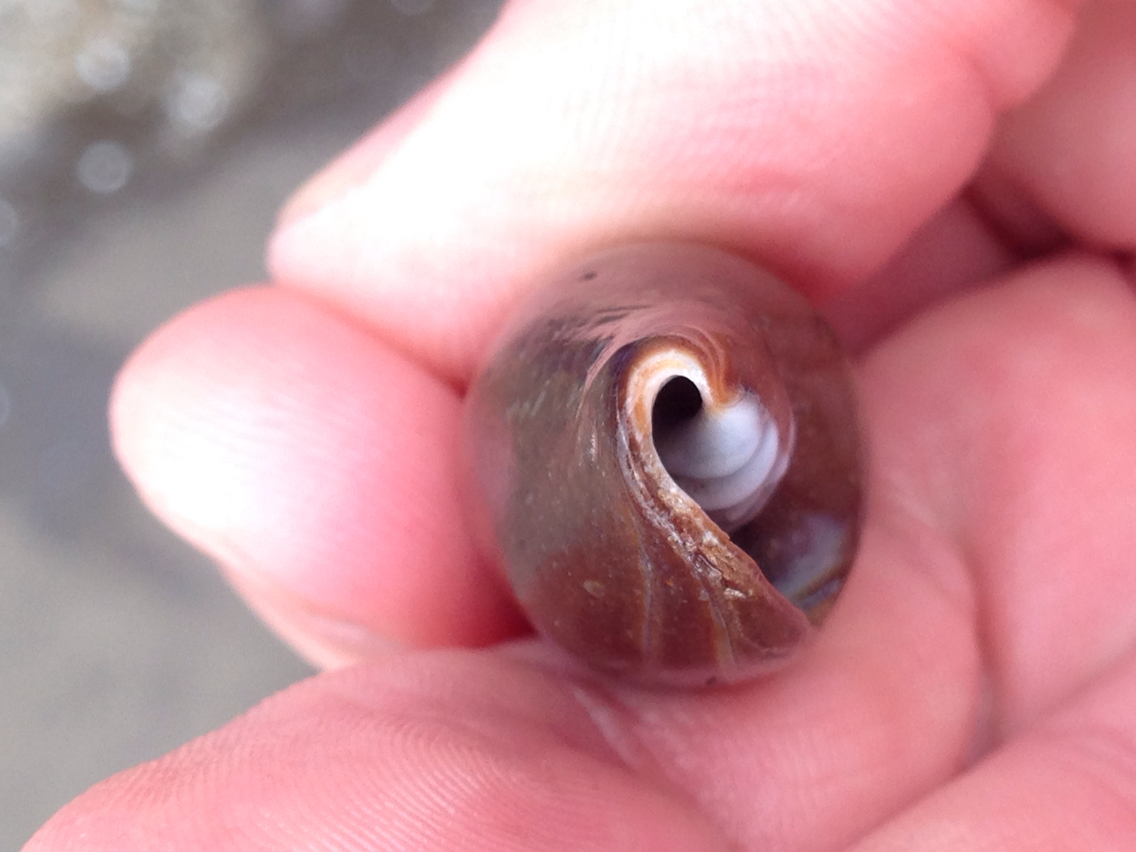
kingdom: Animalia
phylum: Mollusca
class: Gastropoda
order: Neogastropoda
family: Mitridae
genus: Atrimitra
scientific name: Atrimitra idae
